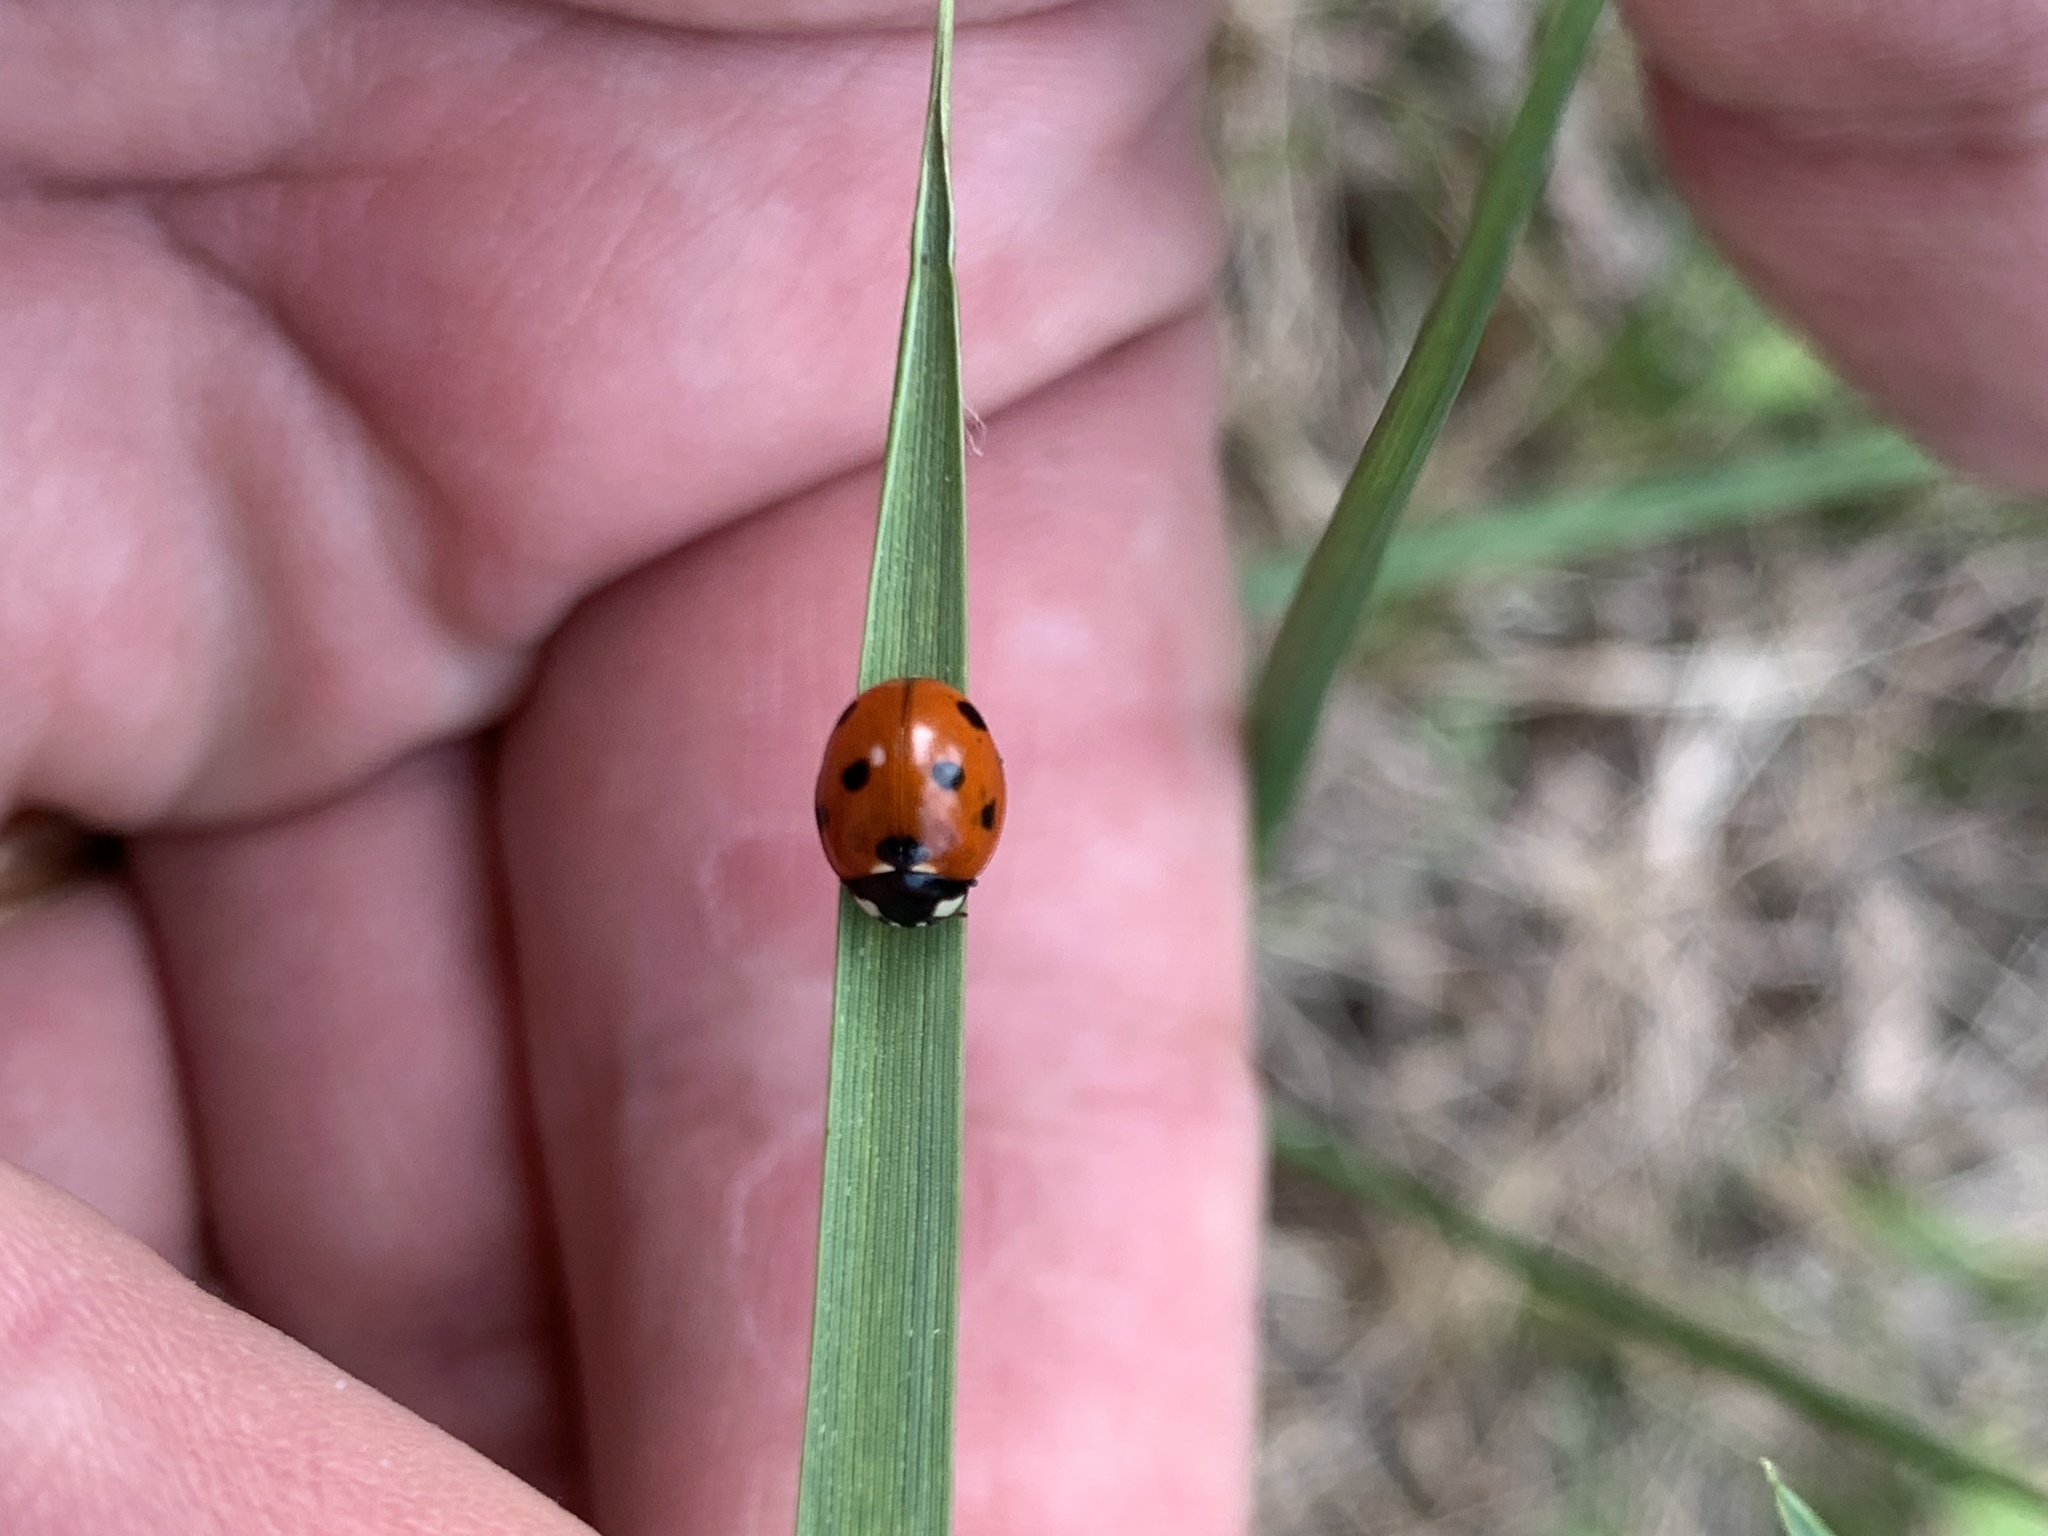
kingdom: Animalia
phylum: Arthropoda
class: Insecta
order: Coleoptera
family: Coccinellidae
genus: Coccinella
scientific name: Coccinella septempunctata
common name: Sevenspotted lady beetle
